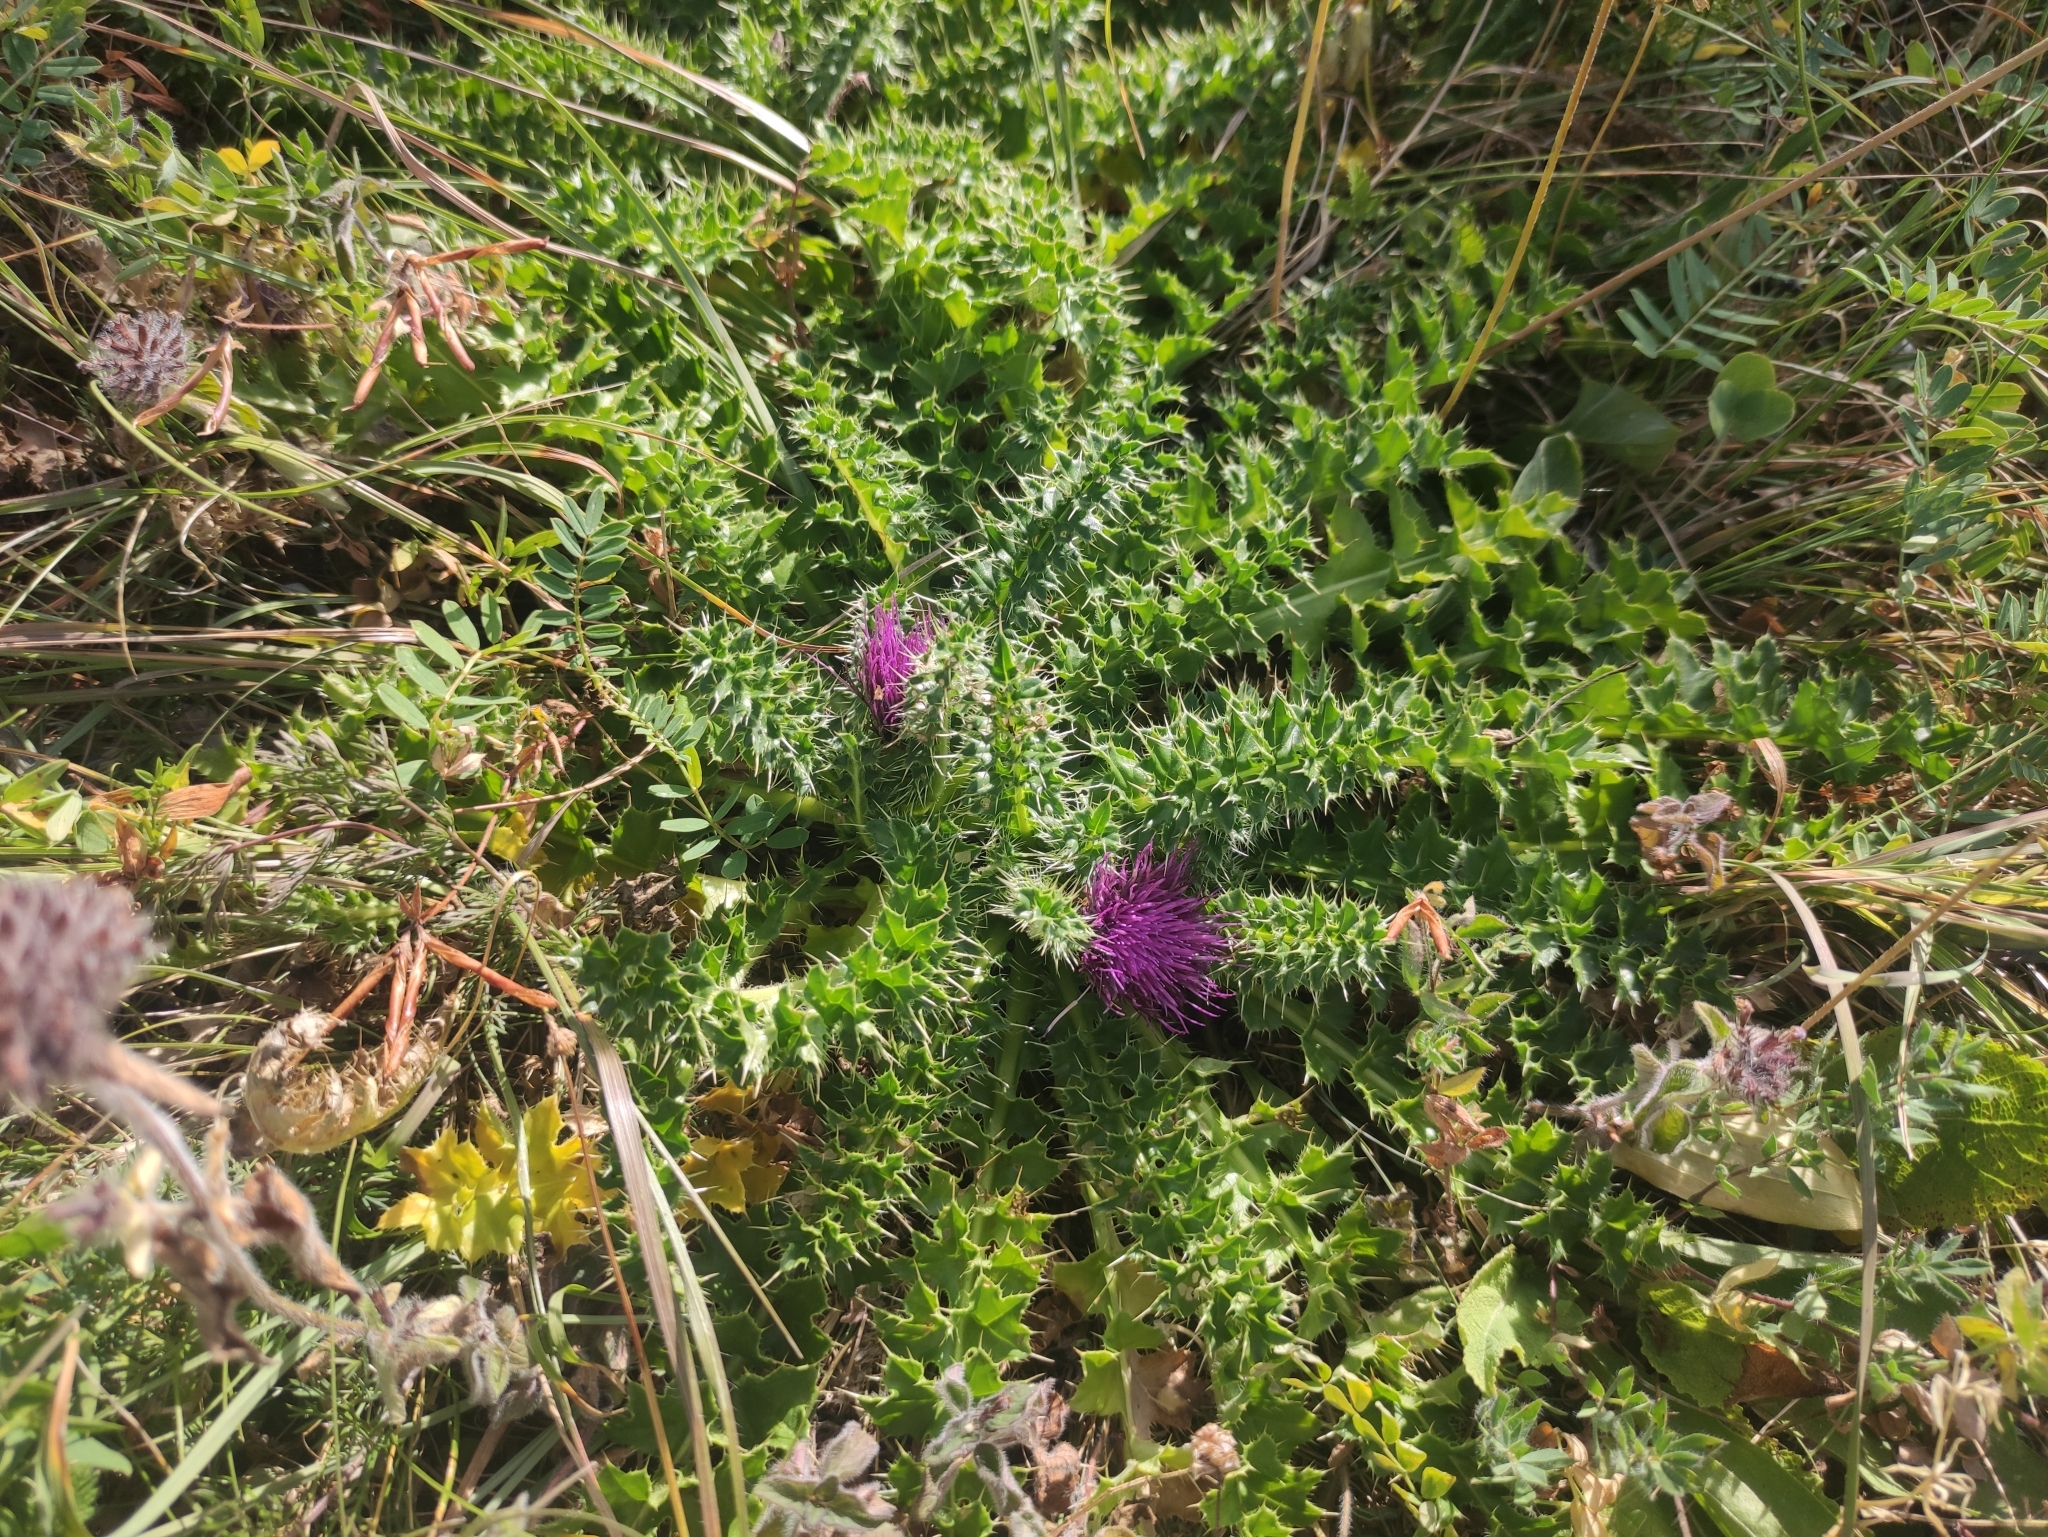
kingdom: Plantae
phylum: Tracheophyta
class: Magnoliopsida
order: Asterales
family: Asteraceae
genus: Cirsium
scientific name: Cirsium acaulon
